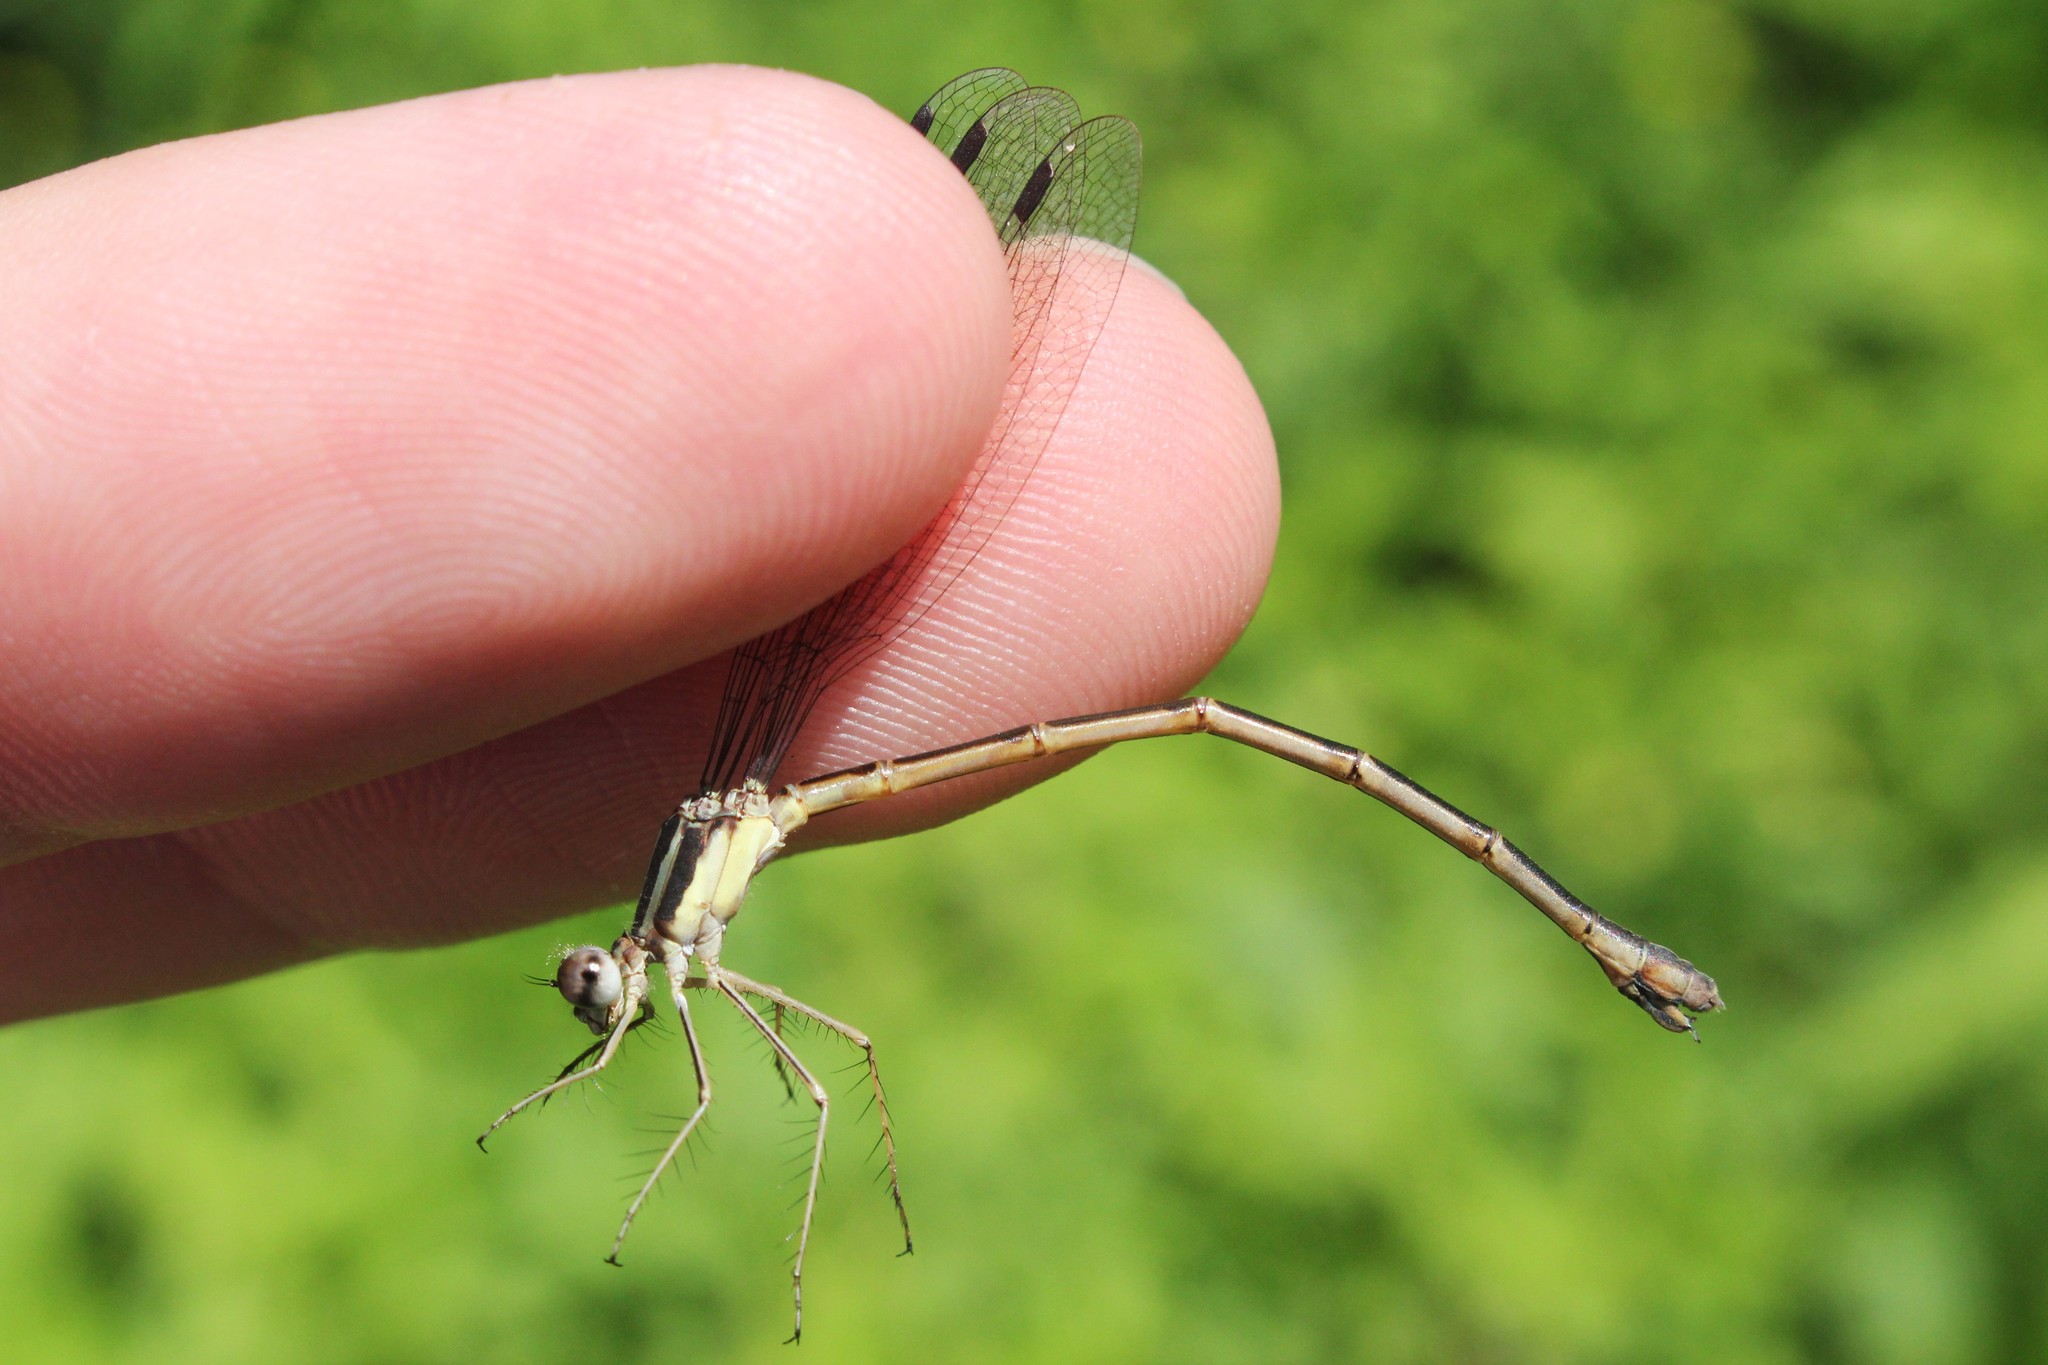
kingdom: Animalia
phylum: Arthropoda
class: Insecta
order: Odonata
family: Lestidae
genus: Lestes
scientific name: Lestes rectangularis
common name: Slender spreadwing
